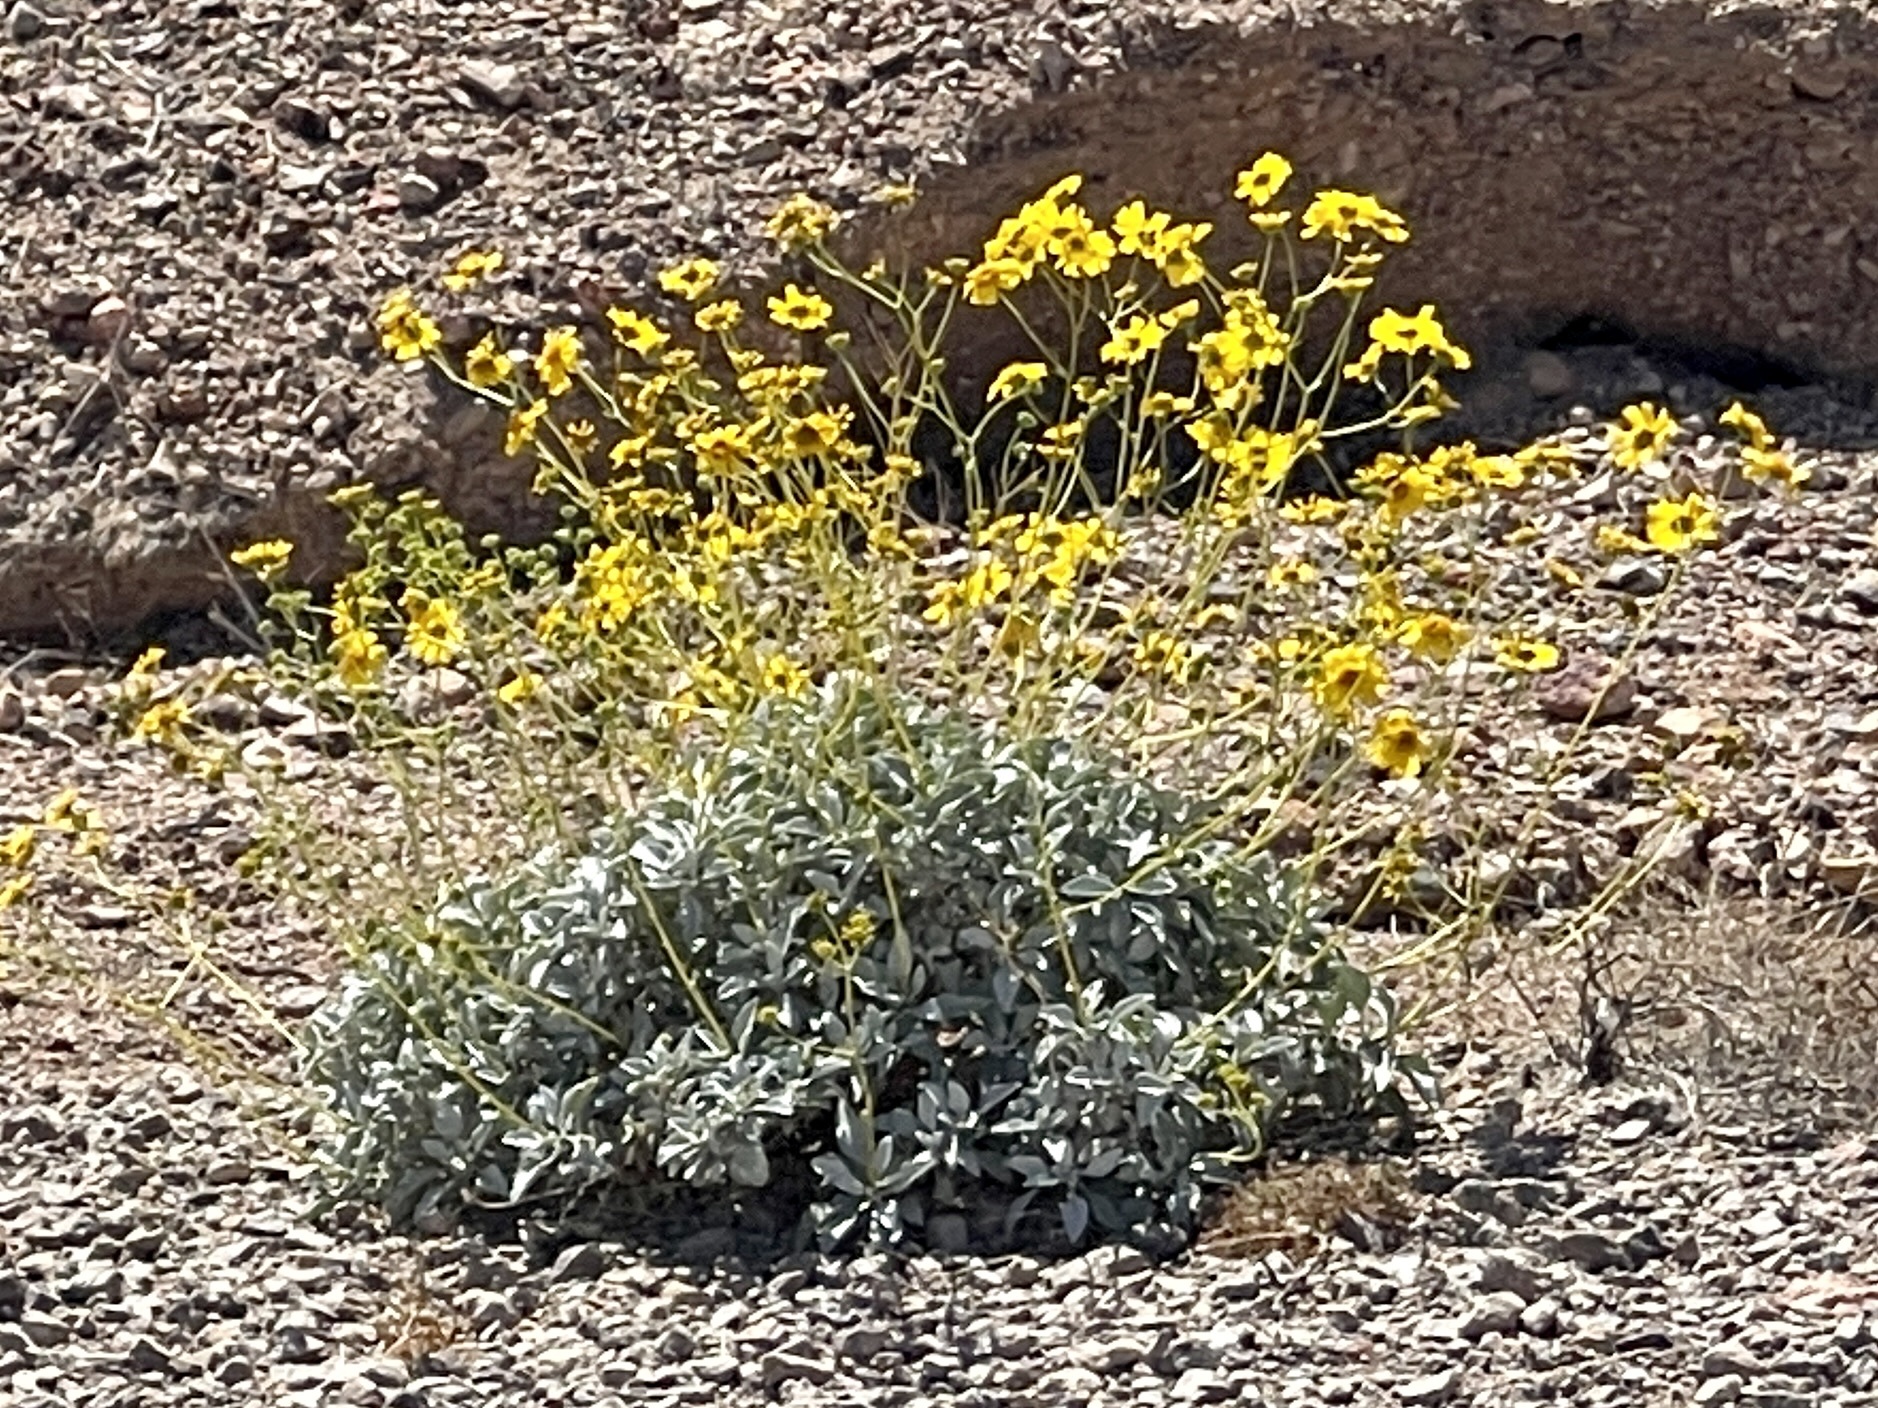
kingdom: Plantae
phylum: Tracheophyta
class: Magnoliopsida
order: Asterales
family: Asteraceae
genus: Encelia
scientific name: Encelia farinosa
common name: Brittlebush
